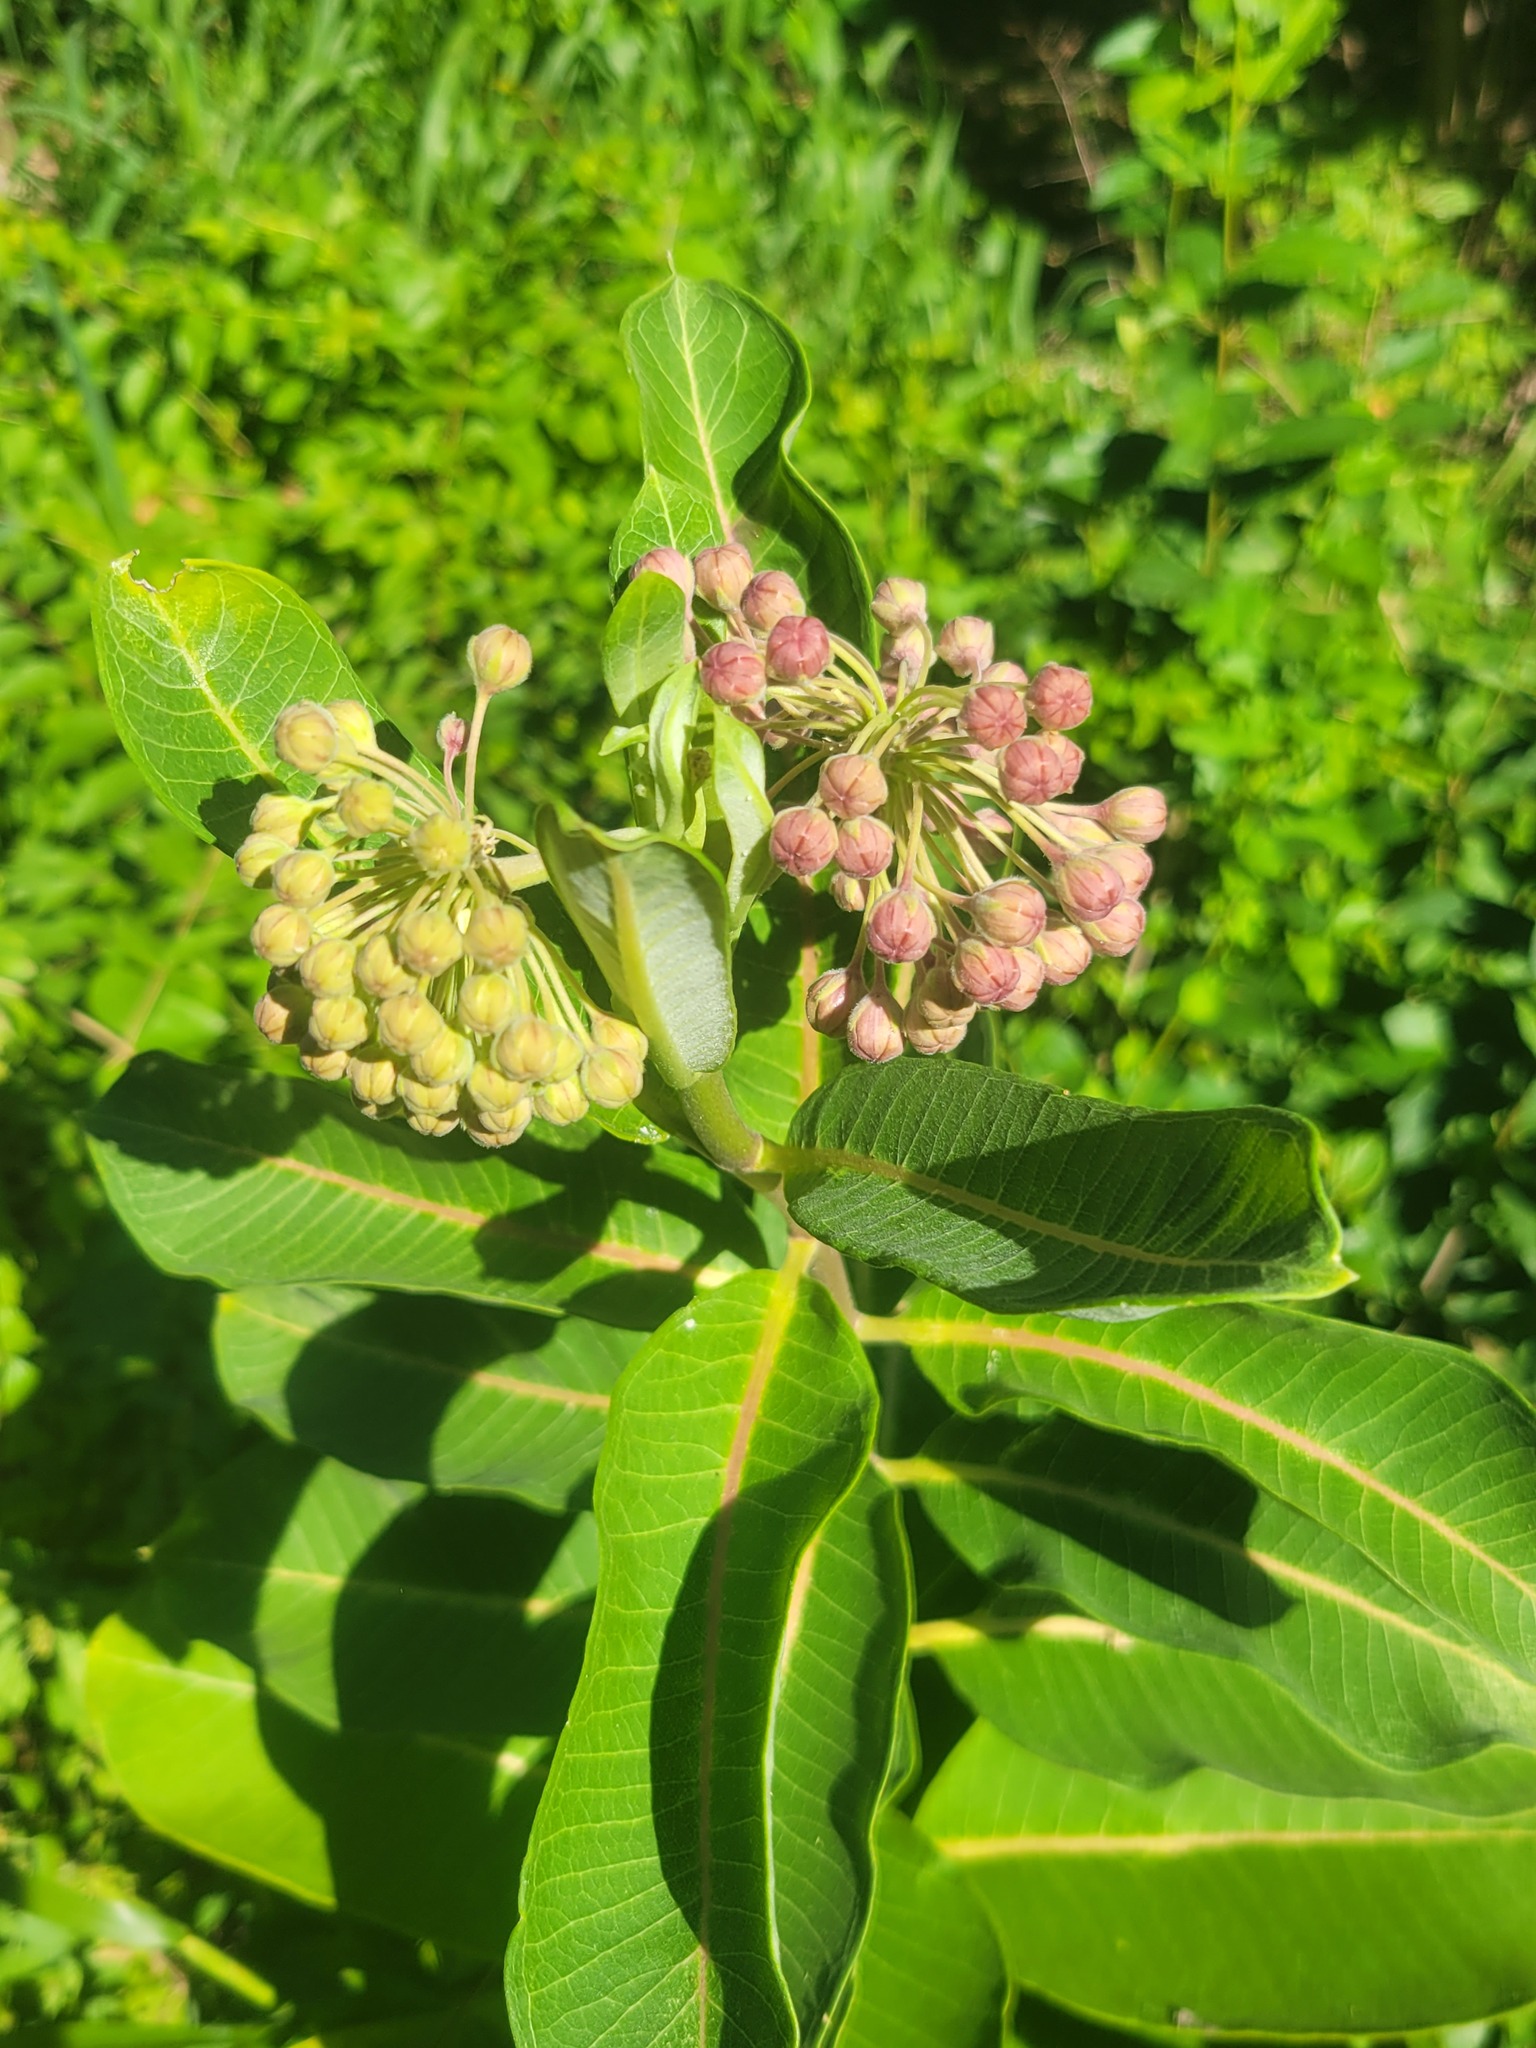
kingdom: Plantae
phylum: Tracheophyta
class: Magnoliopsida
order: Gentianales
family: Apocynaceae
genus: Asclepias
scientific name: Asclepias syriaca
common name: Common milkweed
